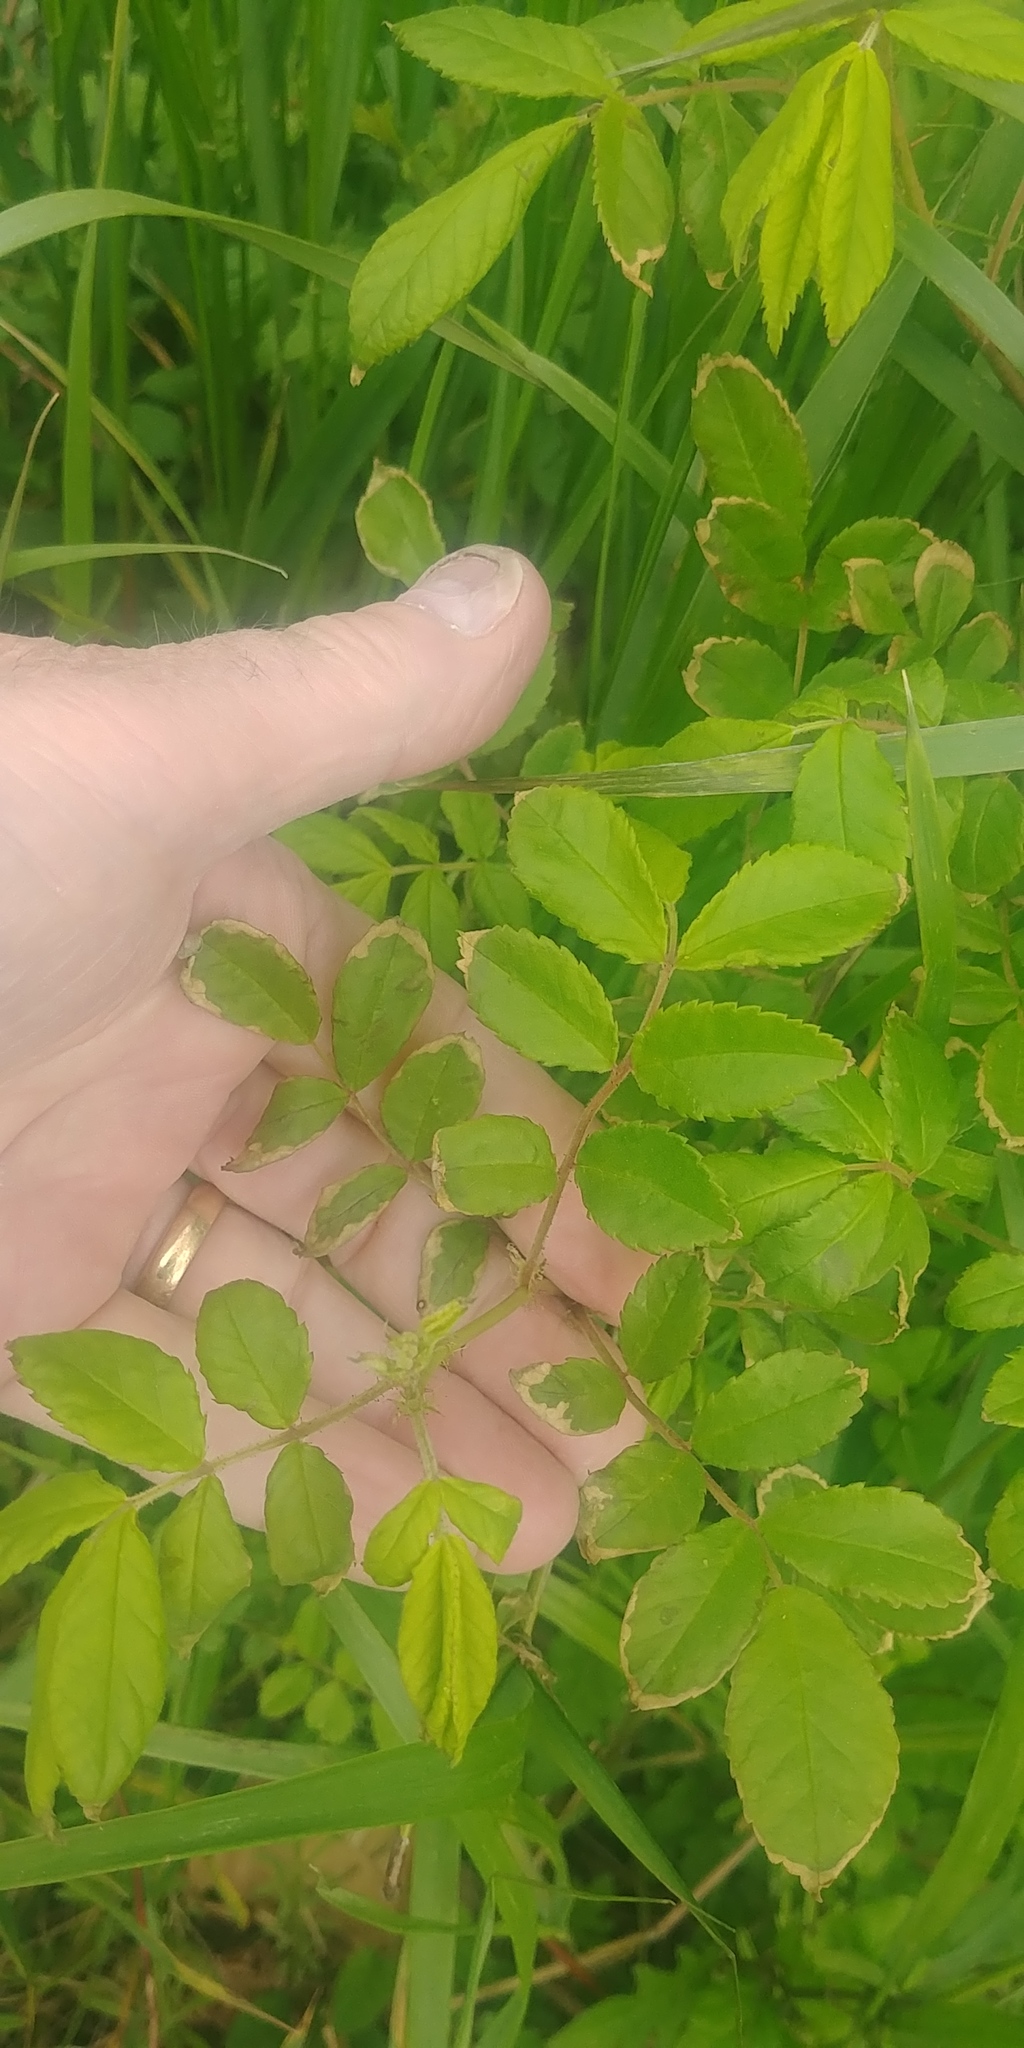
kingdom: Plantae
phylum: Tracheophyta
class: Magnoliopsida
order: Rosales
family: Rosaceae
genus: Rosa
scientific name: Rosa multiflora
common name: Multiflora rose
